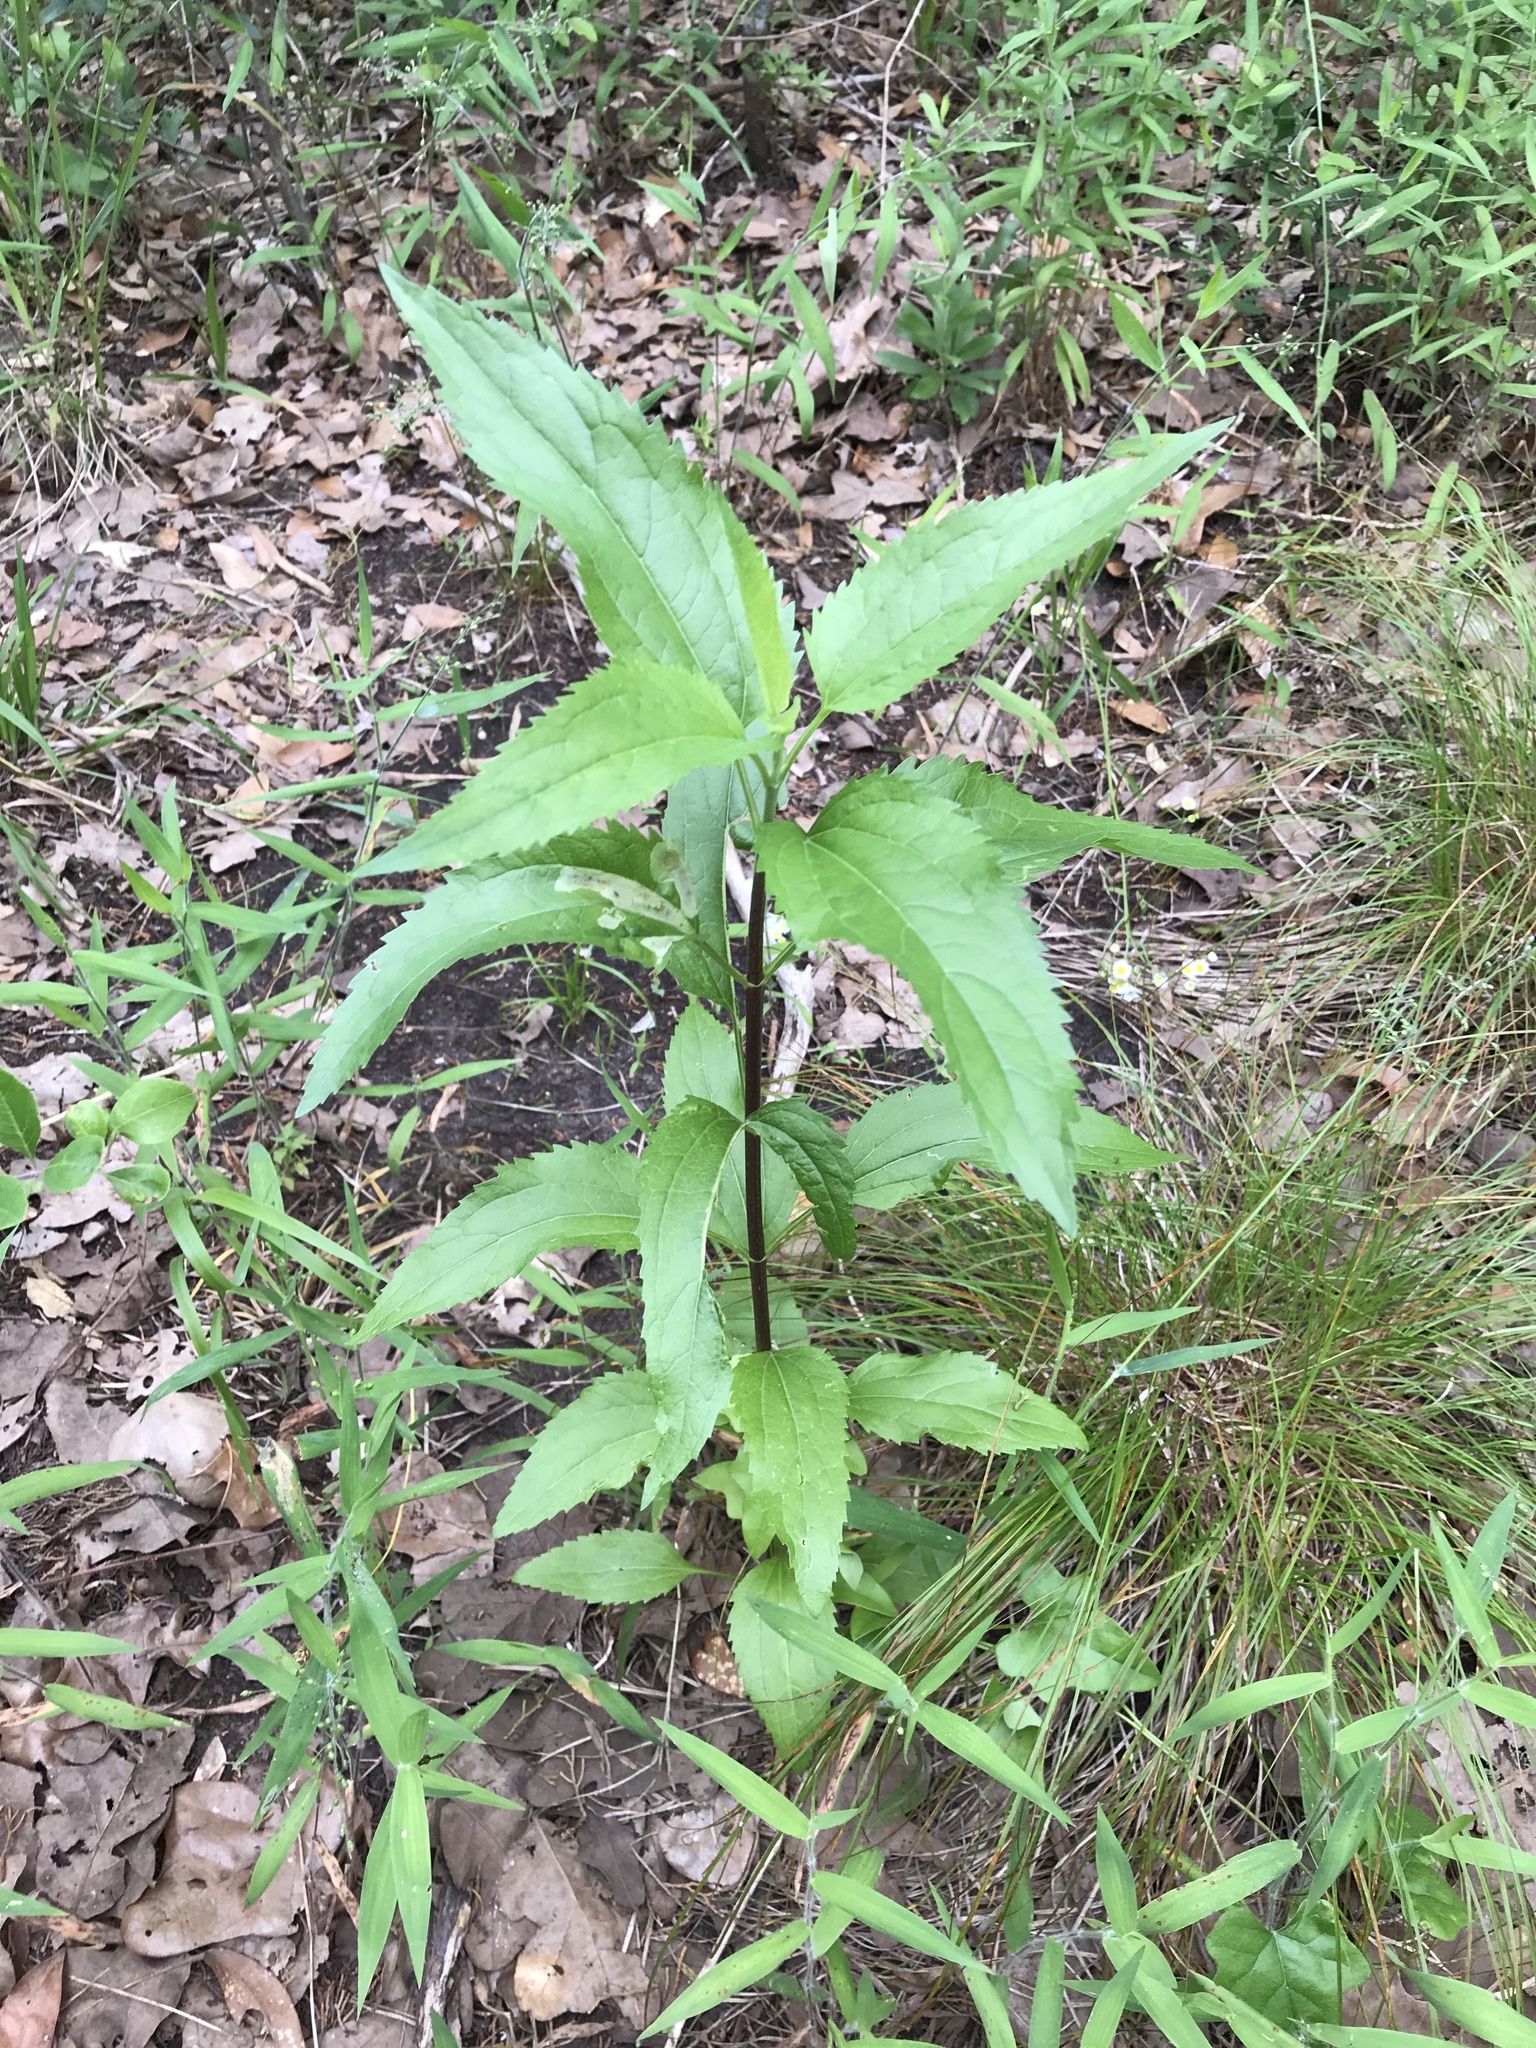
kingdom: Plantae
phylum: Tracheophyta
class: Magnoliopsida
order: Asterales
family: Asteraceae
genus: Eupatorium
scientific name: Eupatorium serotinum
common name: Late boneset
